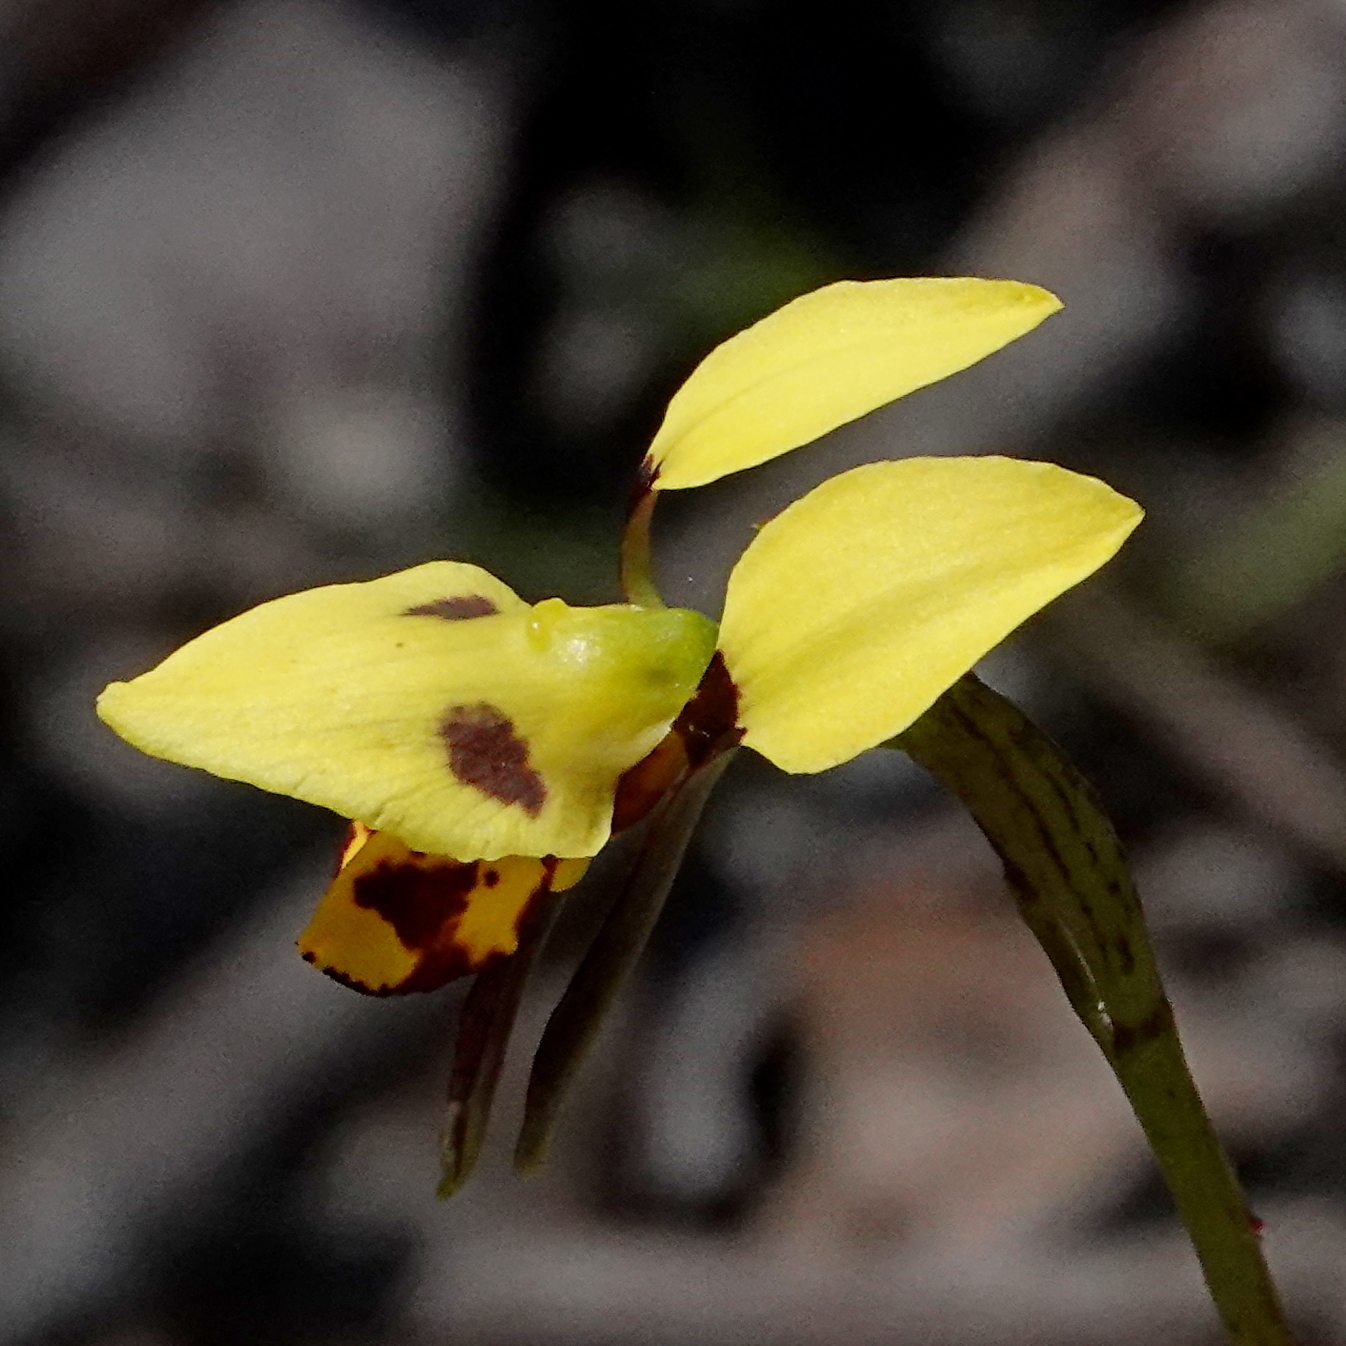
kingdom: Plantae
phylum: Tracheophyta
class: Liliopsida
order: Asparagales
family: Orchidaceae
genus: Diuris
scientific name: Diuris sulphurea
